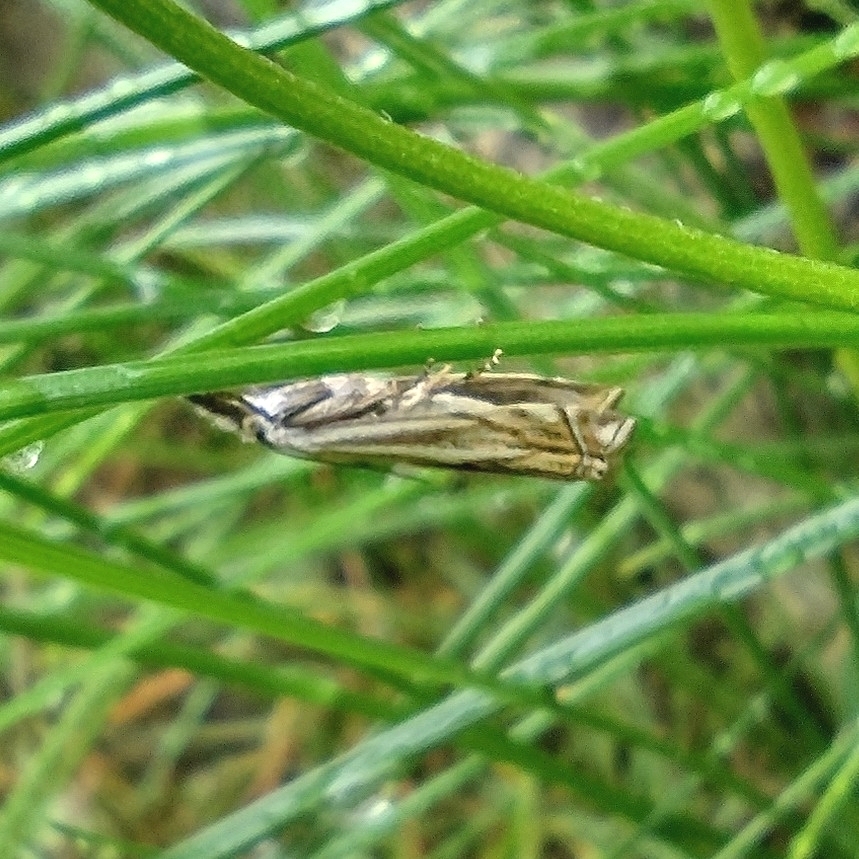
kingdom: Animalia
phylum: Arthropoda
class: Insecta
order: Lepidoptera
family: Crambidae
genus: Crambus
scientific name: Crambus nemorella
